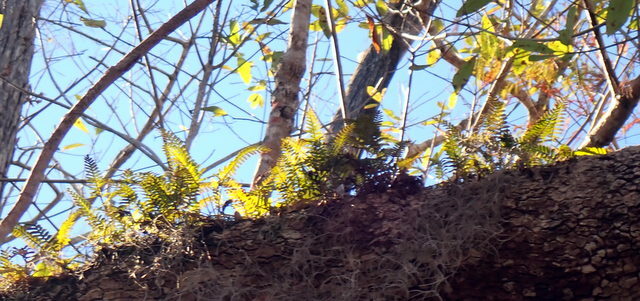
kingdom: Plantae
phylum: Tracheophyta
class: Polypodiopsida
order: Polypodiales
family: Polypodiaceae
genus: Pleopeltis
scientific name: Pleopeltis michauxiana
